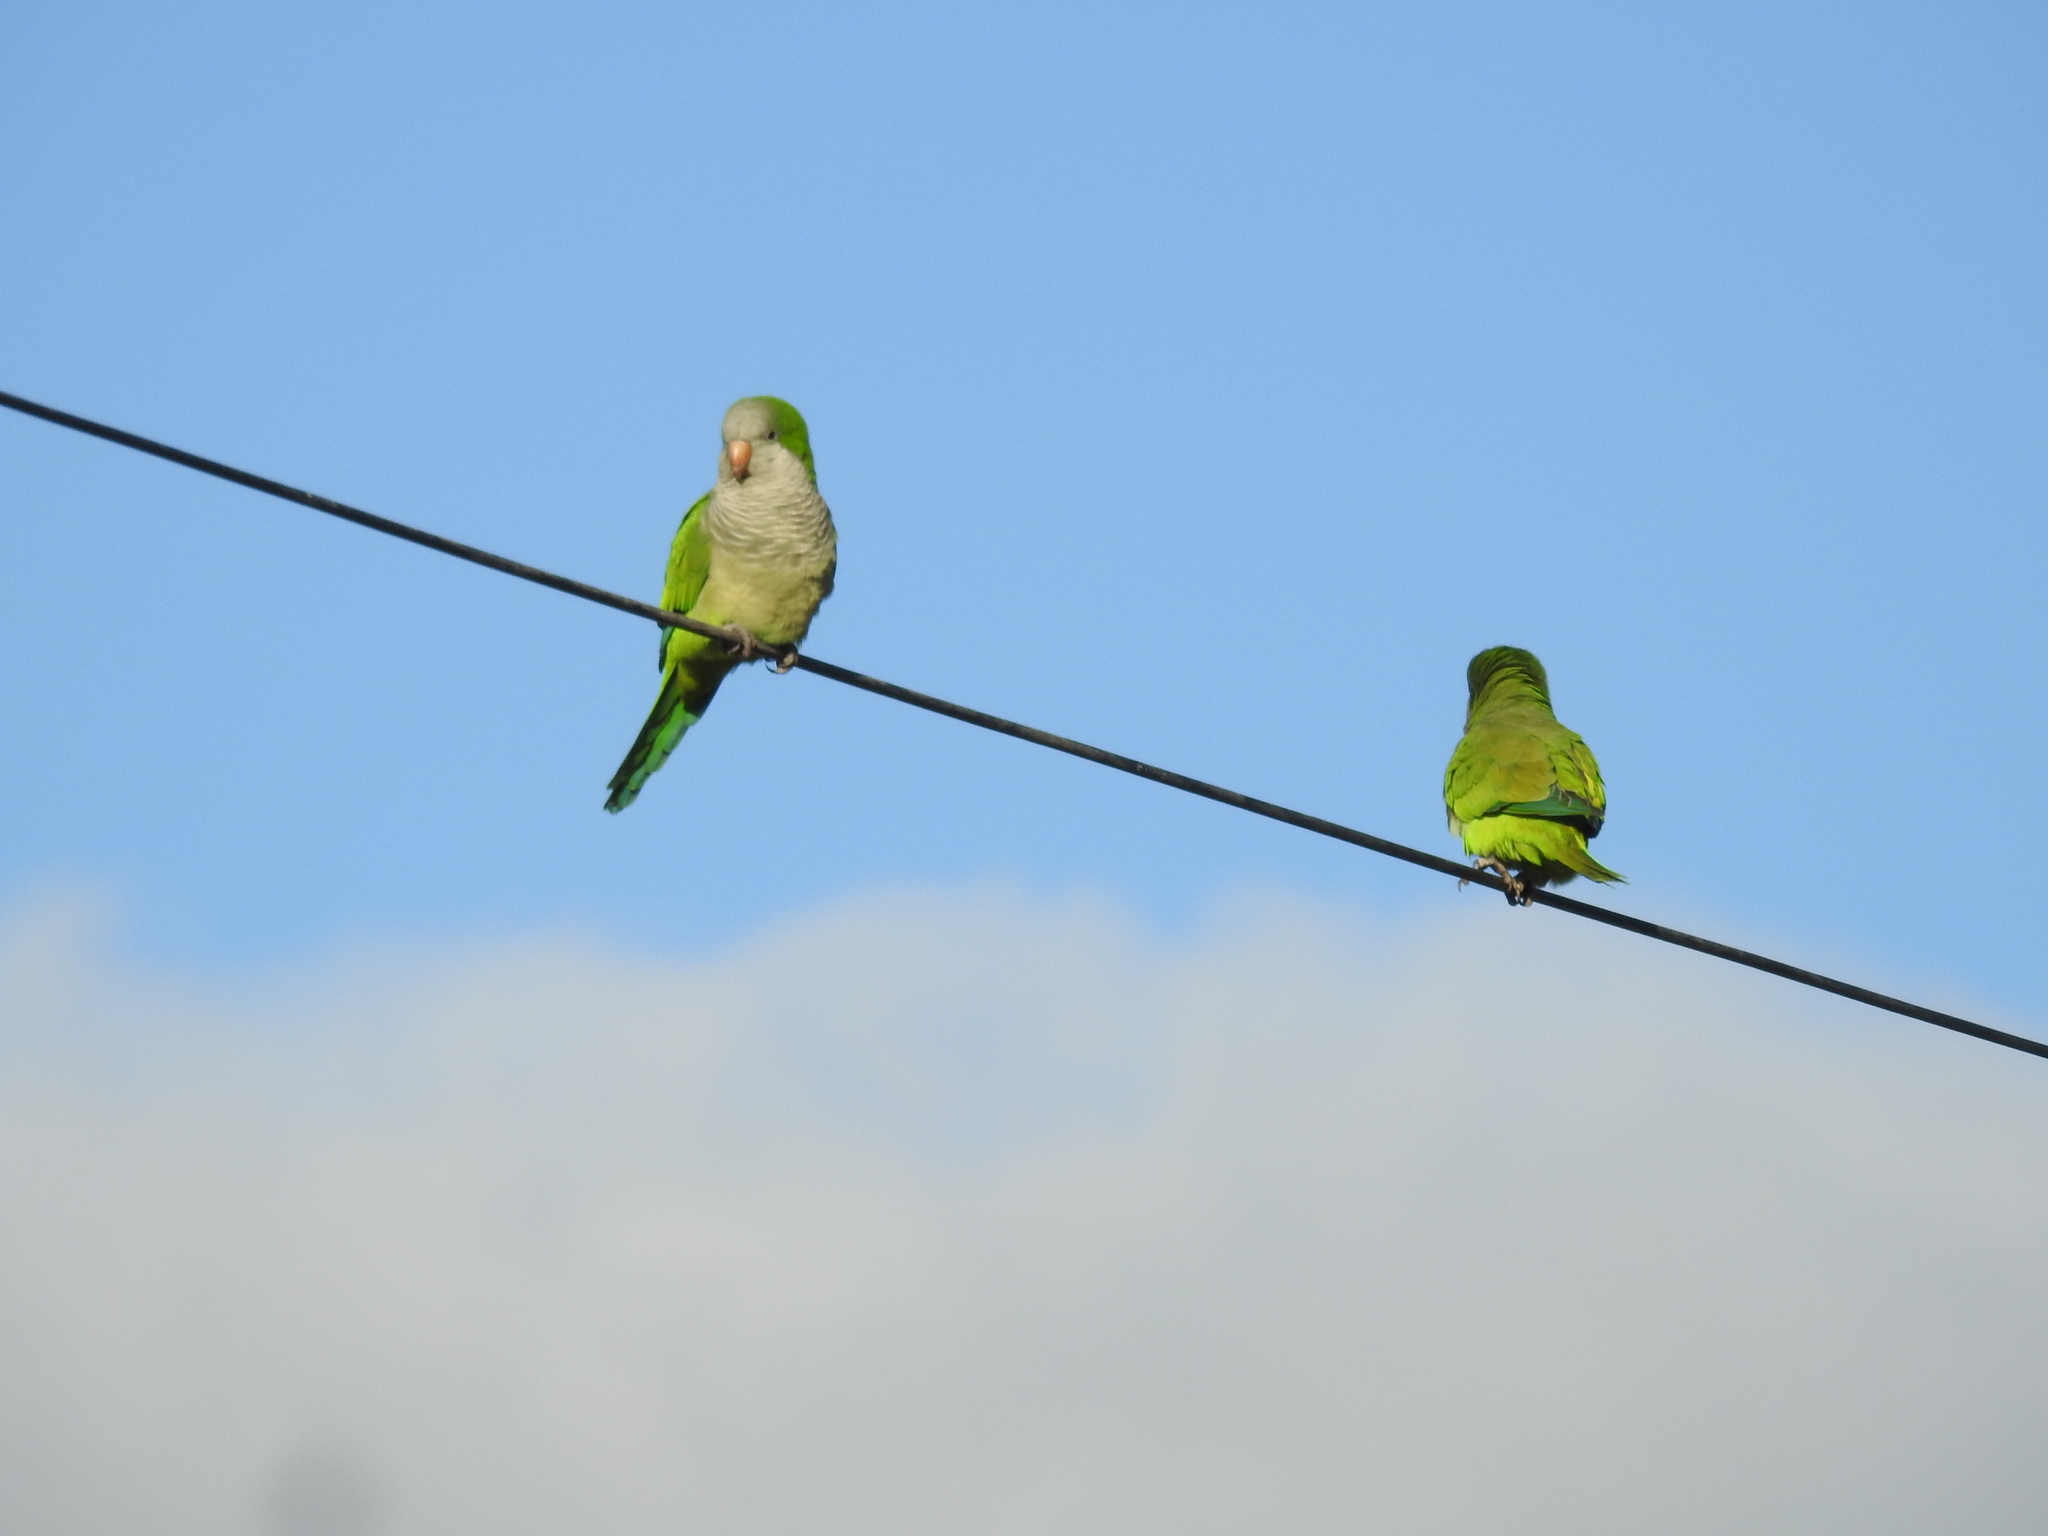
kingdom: Animalia
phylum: Chordata
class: Aves
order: Psittaciformes
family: Psittacidae
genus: Myiopsitta
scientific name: Myiopsitta monachus
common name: Monk parakeet
